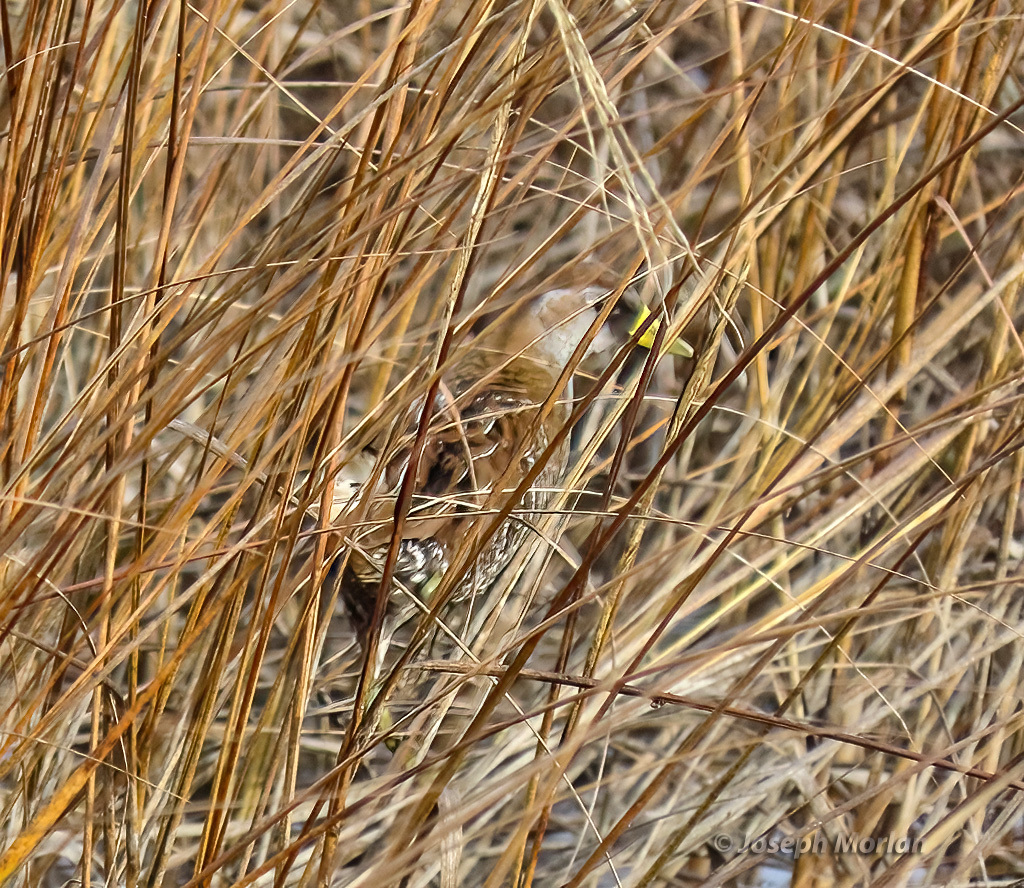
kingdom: Animalia
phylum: Chordata
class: Aves
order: Gruiformes
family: Rallidae
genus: Porzana
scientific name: Porzana carolina
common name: Sora
